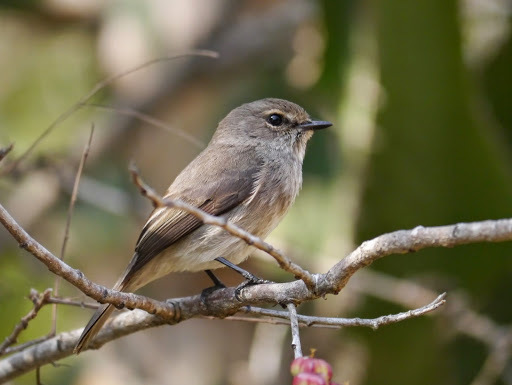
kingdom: Animalia
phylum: Chordata
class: Aves
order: Passeriformes
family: Muscicapidae
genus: Muscicapa
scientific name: Muscicapa adusta
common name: African dusky flycatcher
